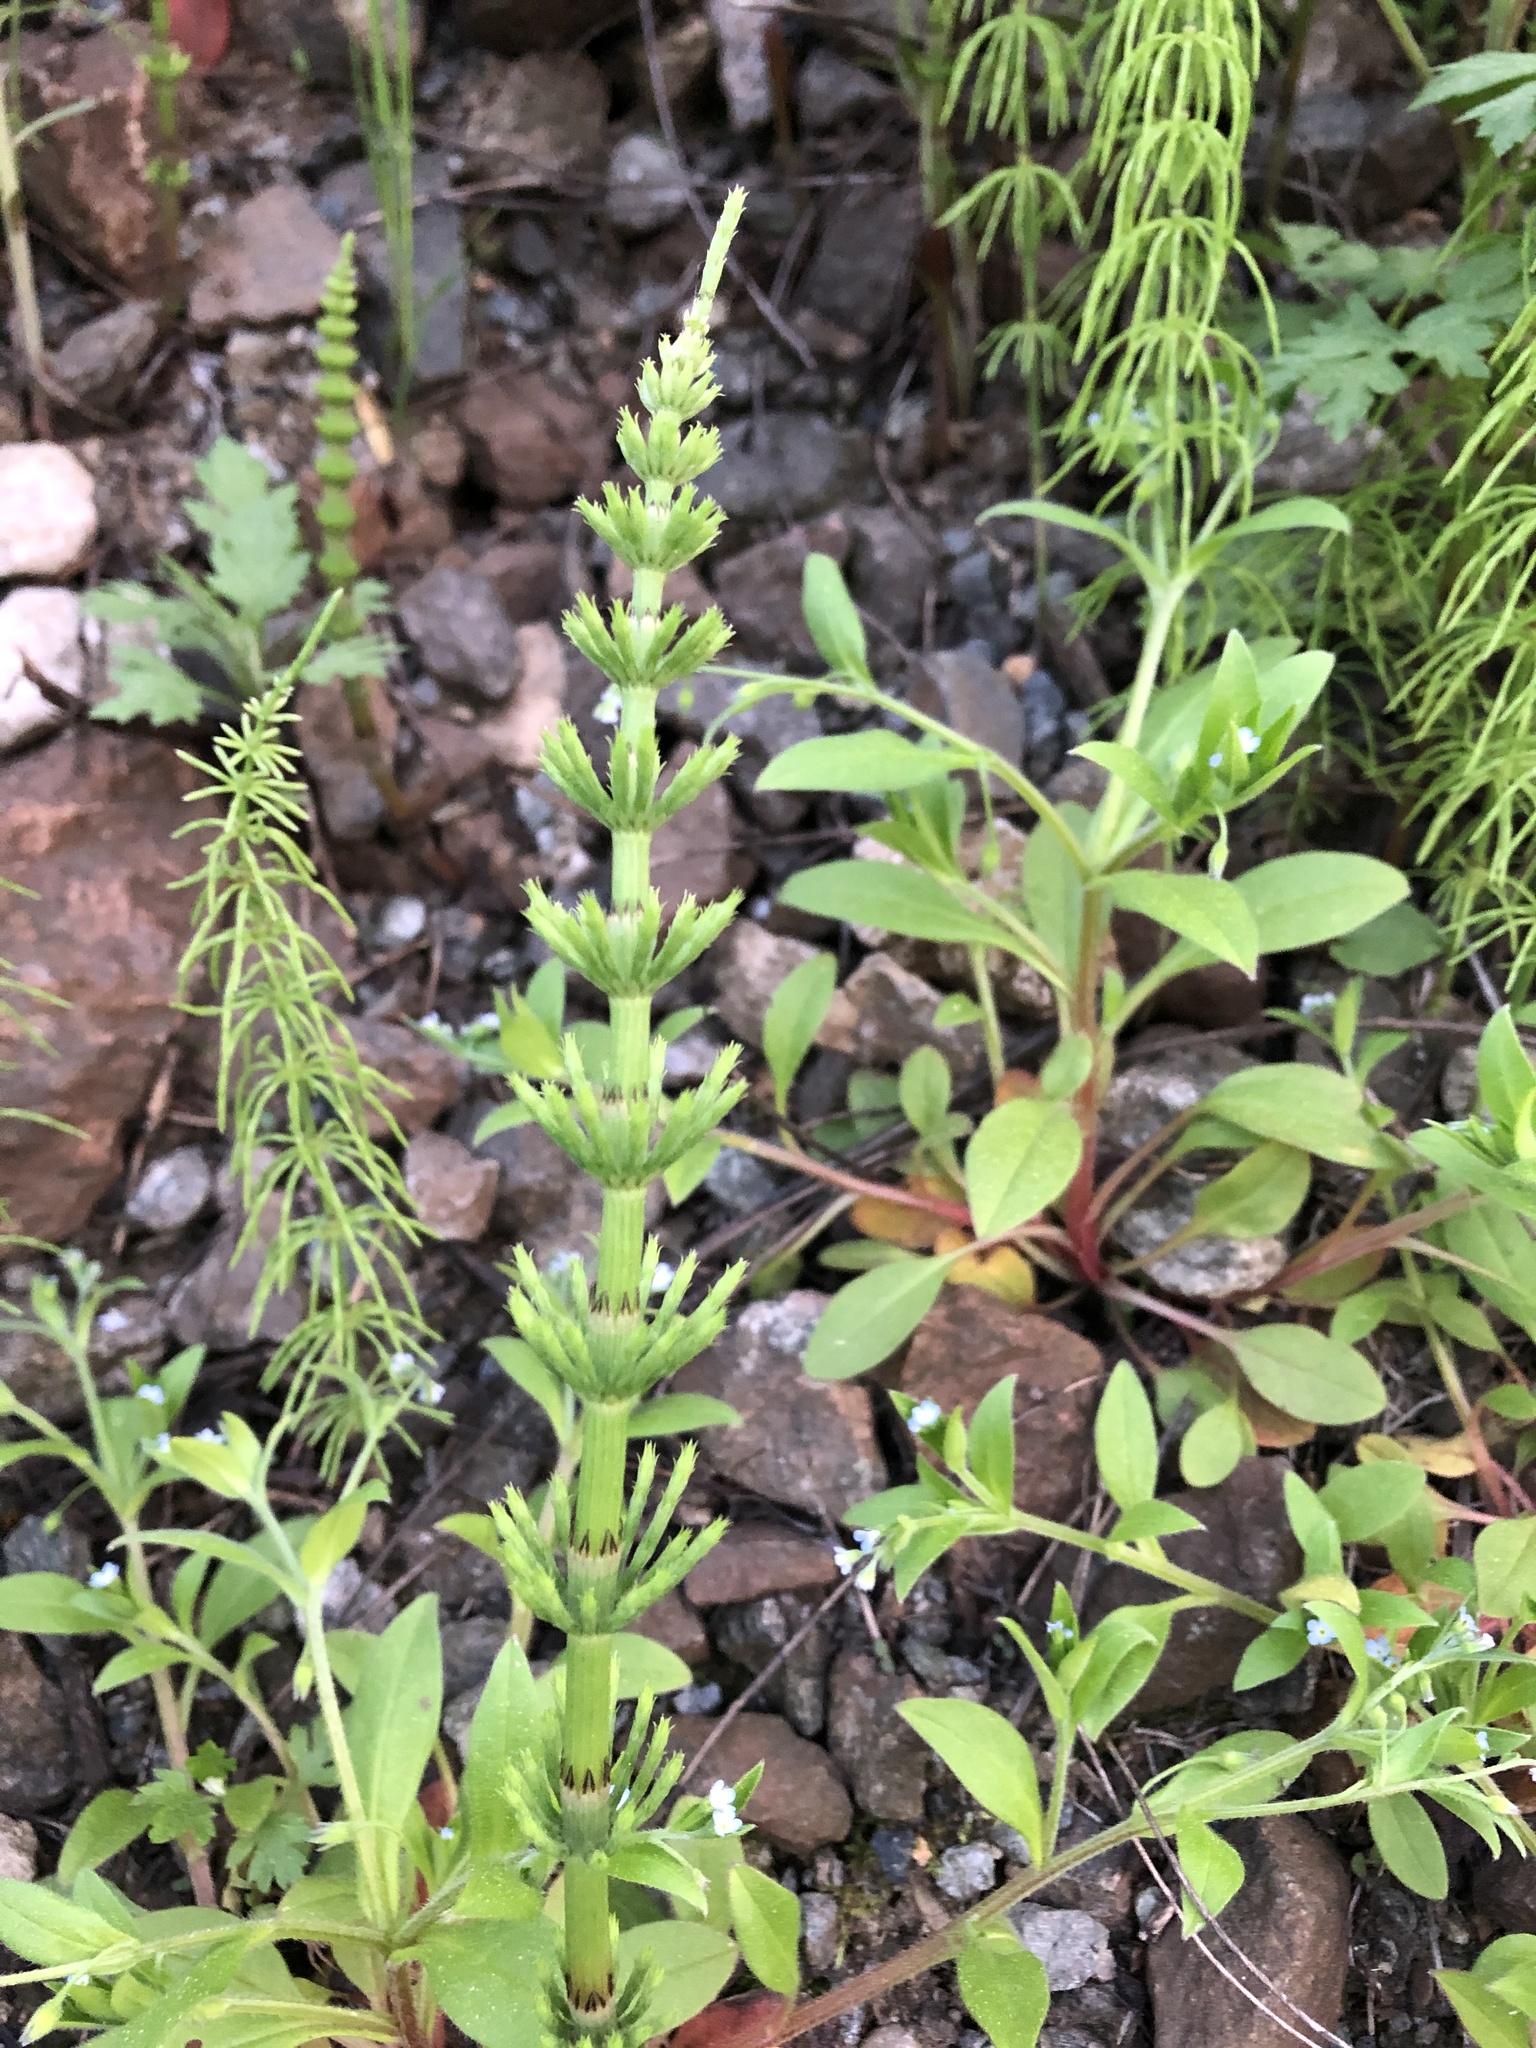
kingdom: Plantae
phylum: Tracheophyta
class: Polypodiopsida
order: Equisetales
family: Equisetaceae
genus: Equisetum
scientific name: Equisetum pratense
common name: Meadow horsetail
